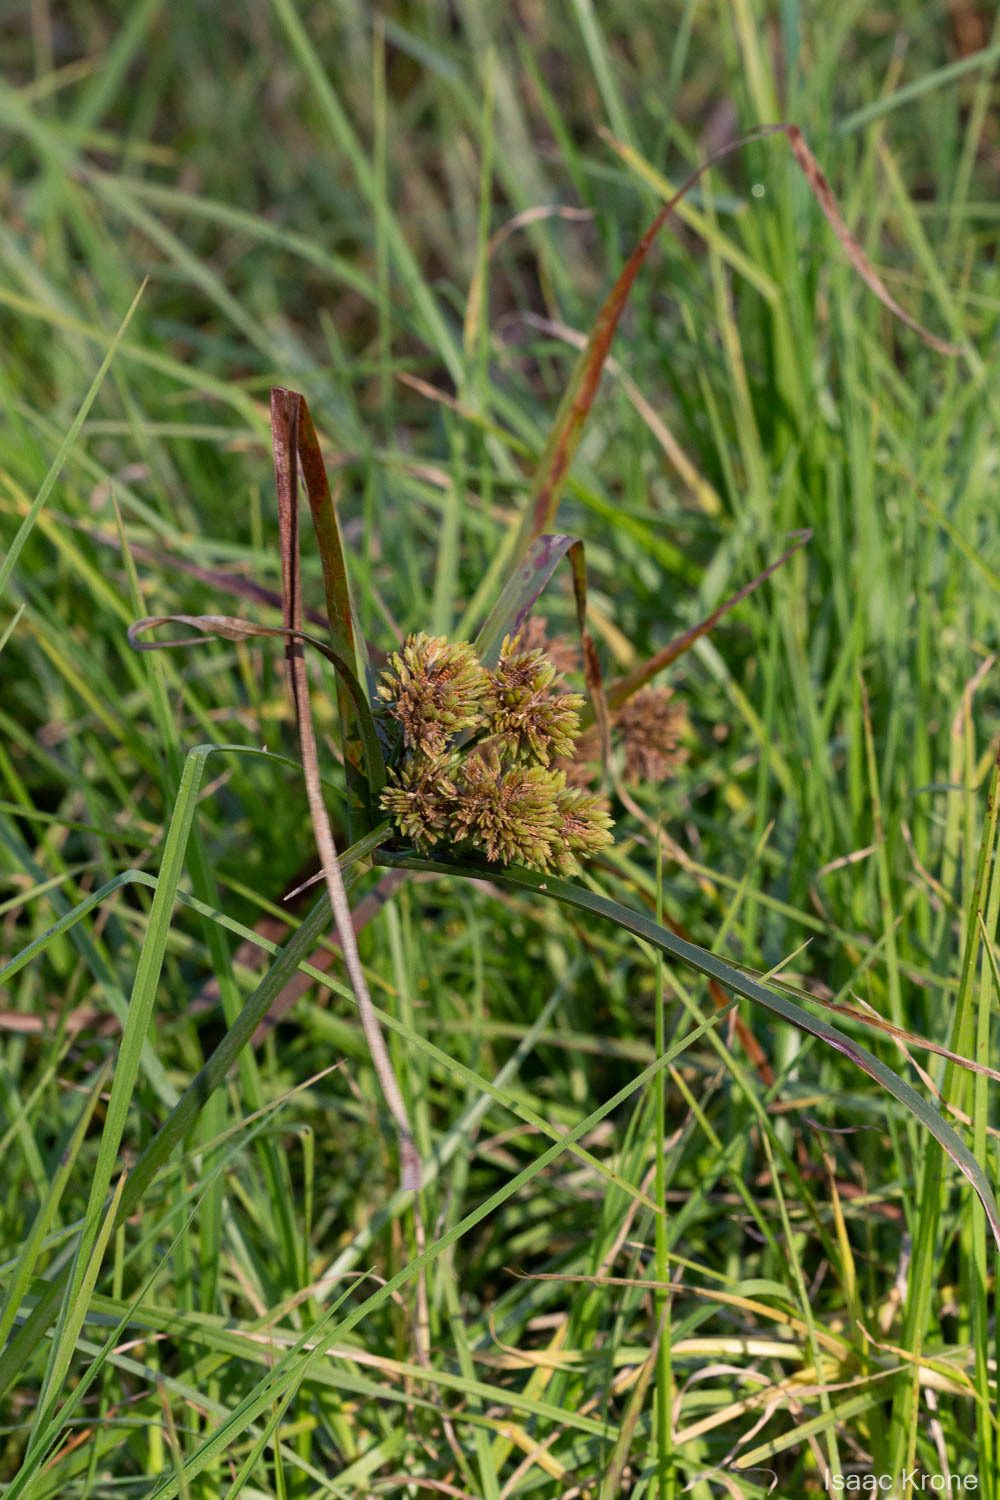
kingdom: Plantae
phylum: Tracheophyta
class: Liliopsida
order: Poales
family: Cyperaceae
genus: Cyperus
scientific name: Cyperus eragrostis
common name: Tall flatsedge
